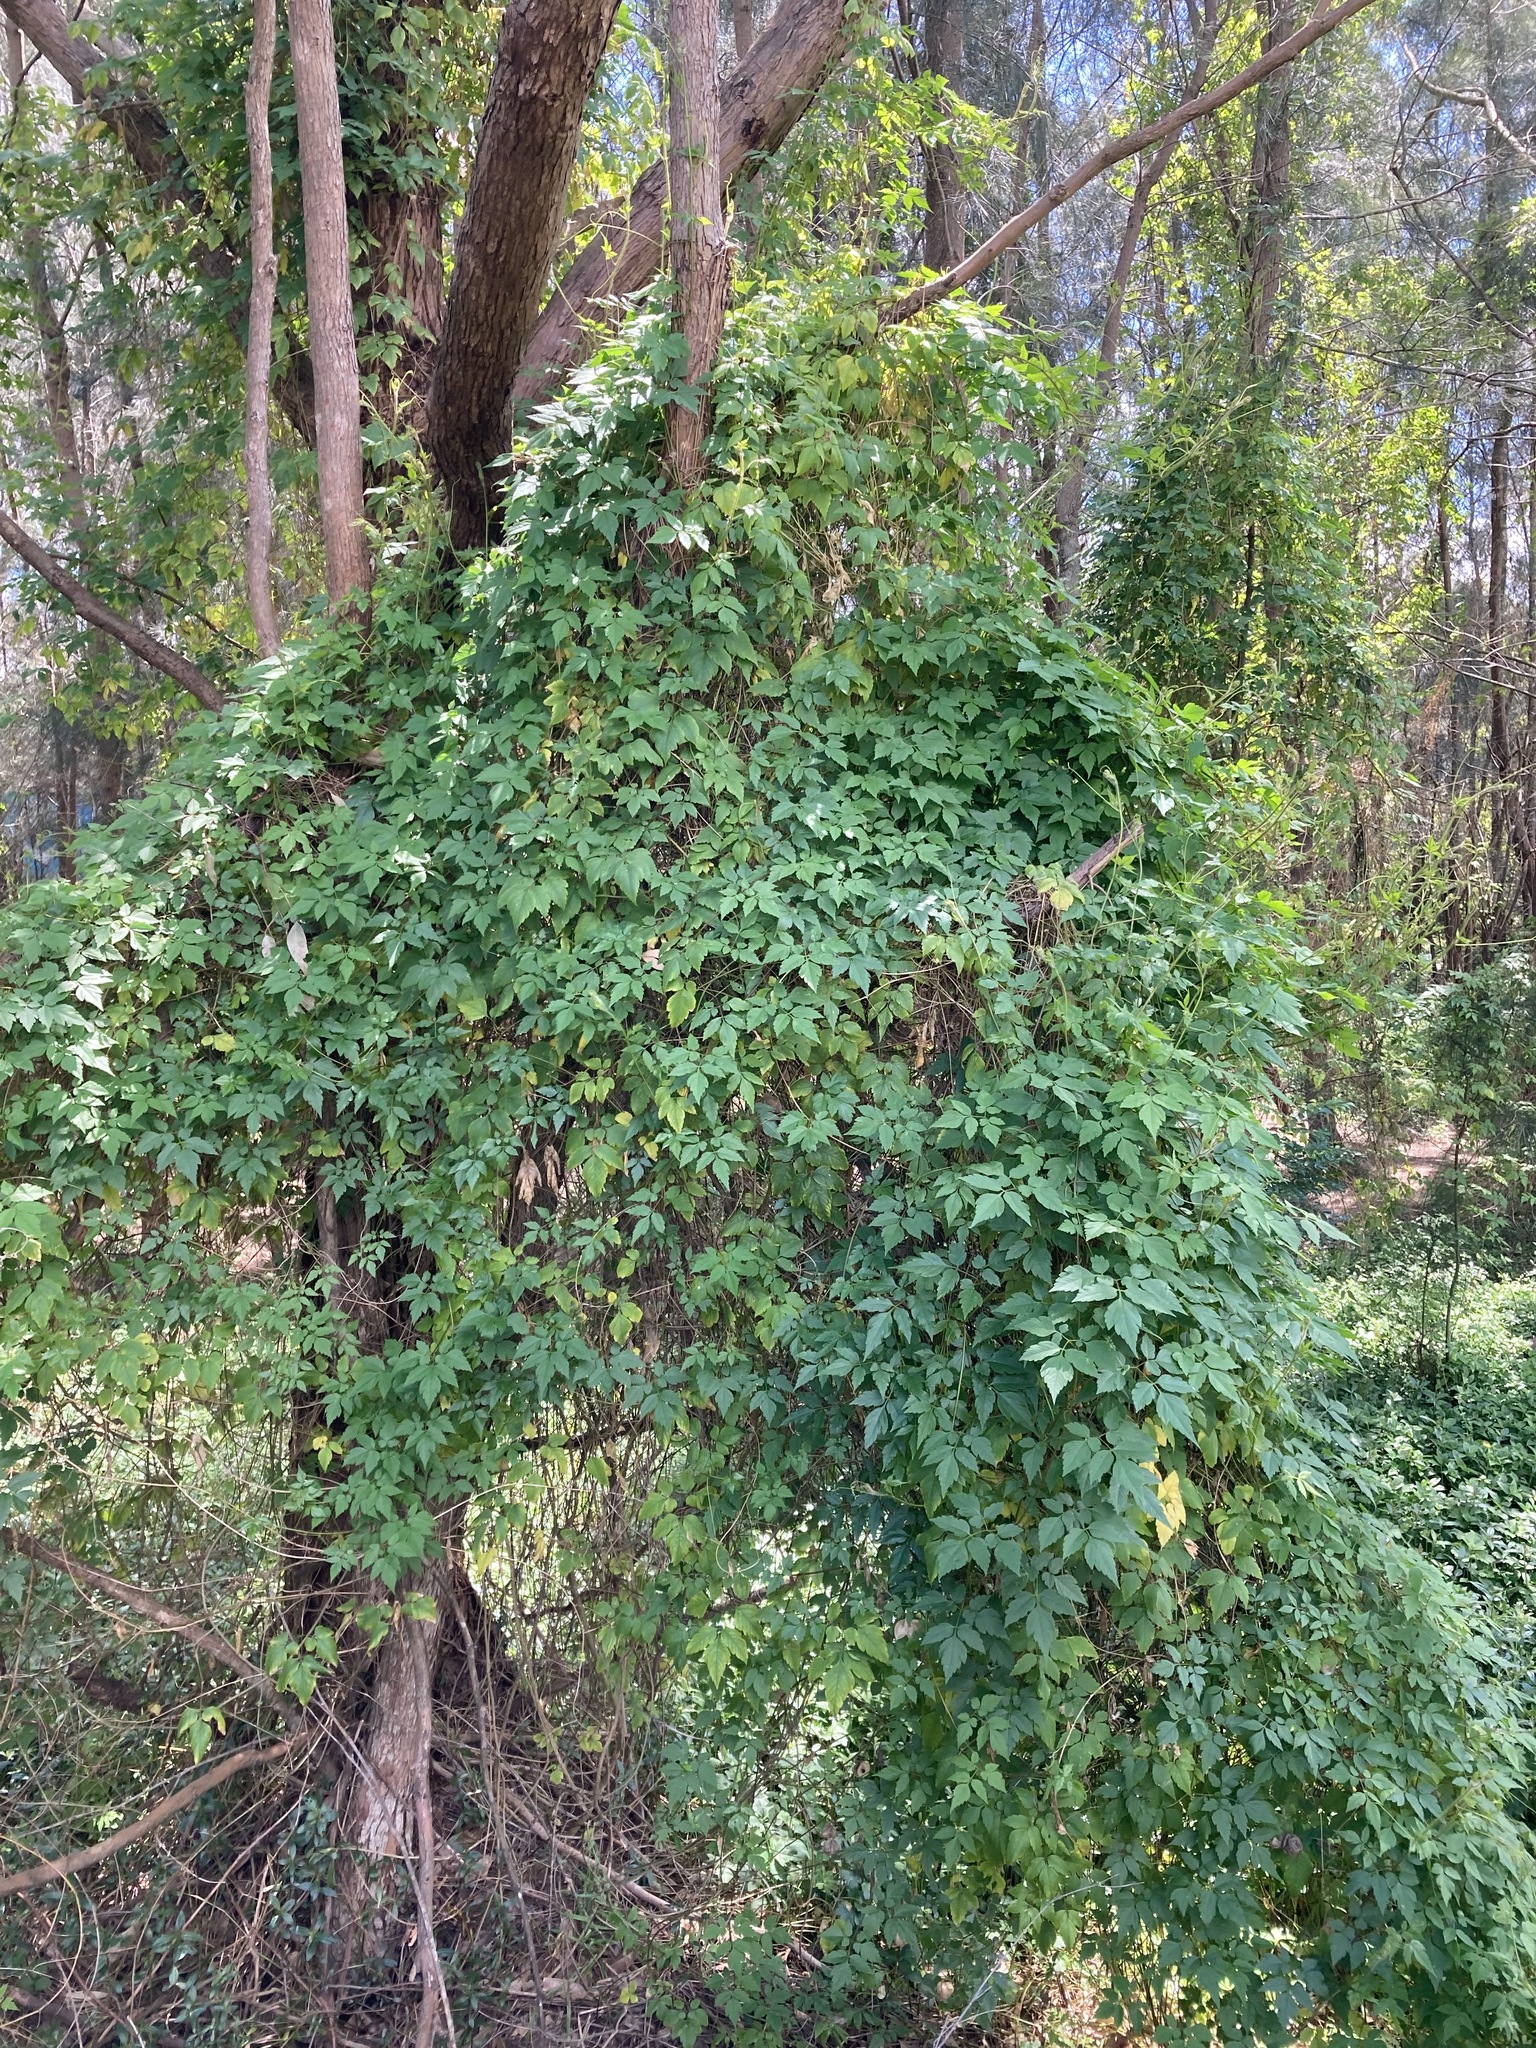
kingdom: Plantae
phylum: Tracheophyta
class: Magnoliopsida
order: Sapindales
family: Sapindaceae
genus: Cardiospermum
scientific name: Cardiospermum grandiflorum
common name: Balloon vine
